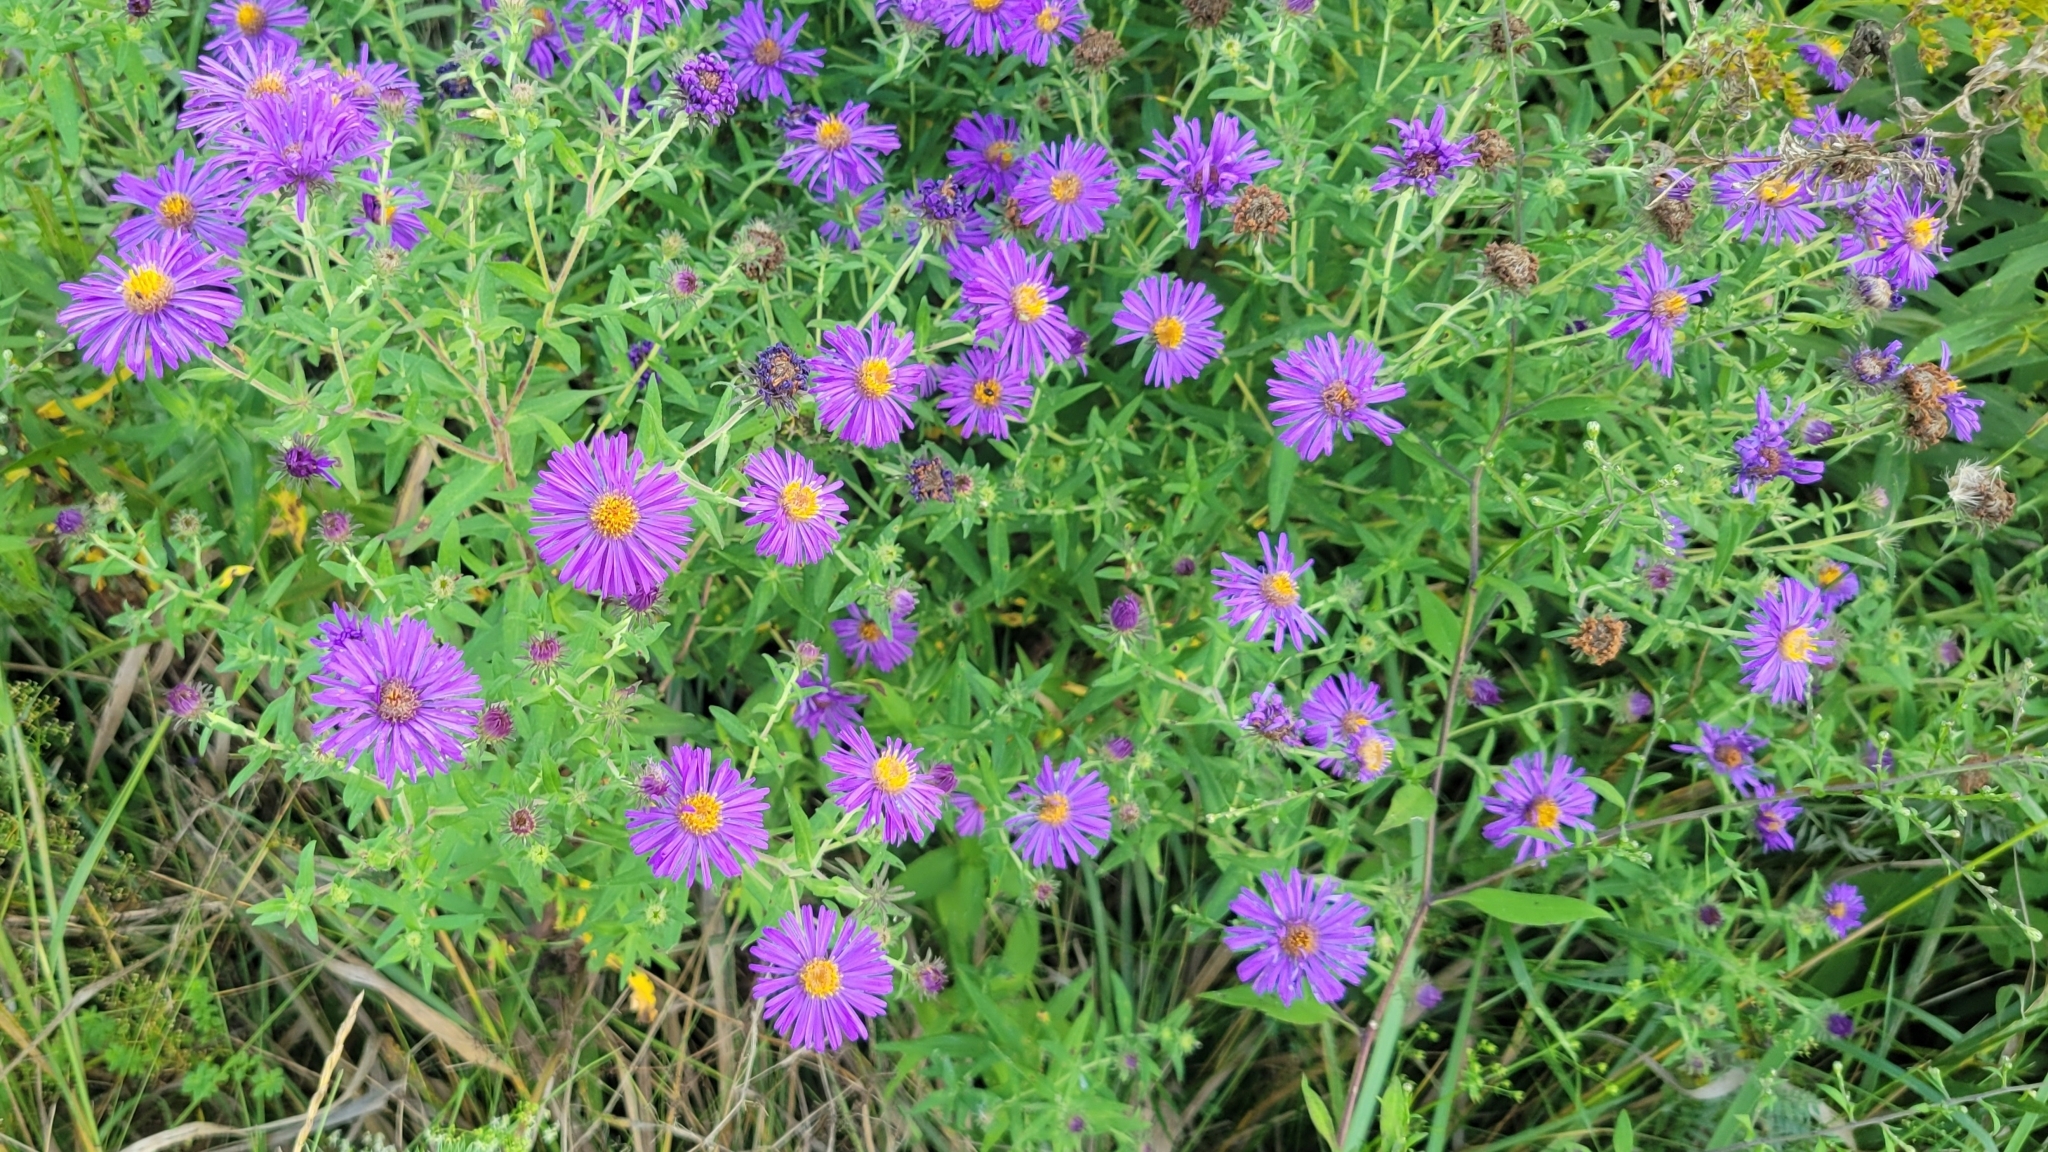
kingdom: Plantae
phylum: Tracheophyta
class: Magnoliopsida
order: Asterales
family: Asteraceae
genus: Symphyotrichum
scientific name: Symphyotrichum novae-angliae
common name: Michaelmas daisy
